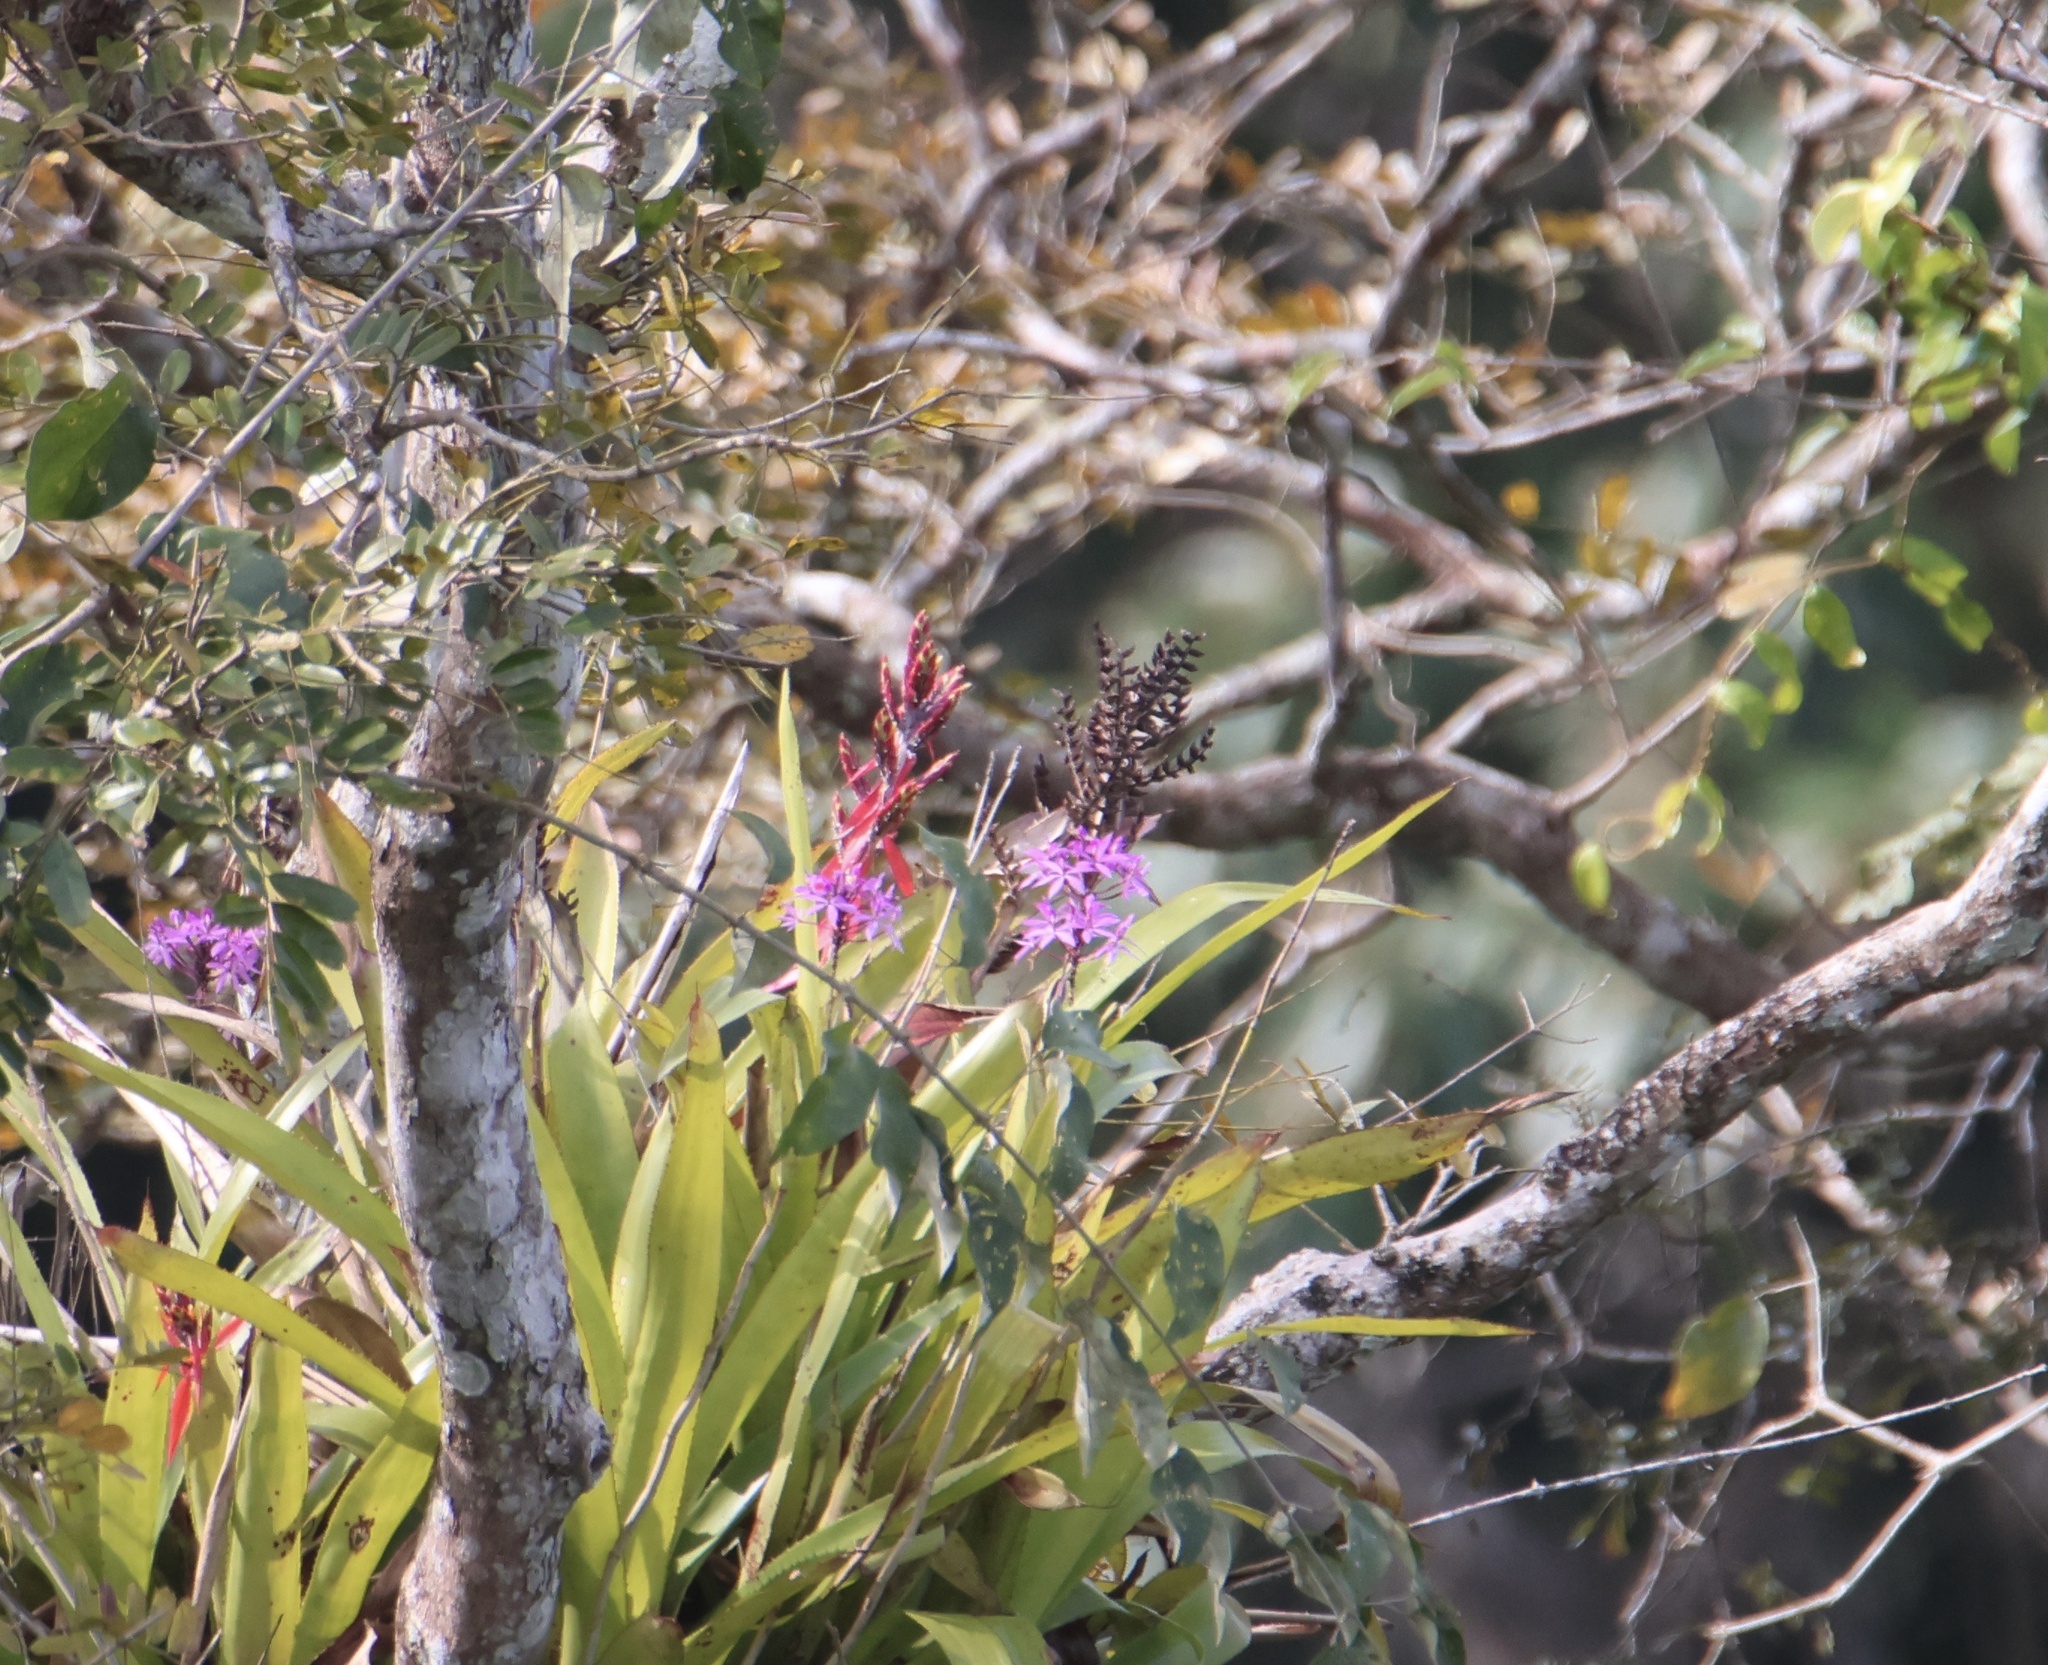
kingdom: Plantae
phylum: Tracheophyta
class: Liliopsida
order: Poales
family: Bromeliaceae
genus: Aechmea
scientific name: Aechmea tillandsioides
